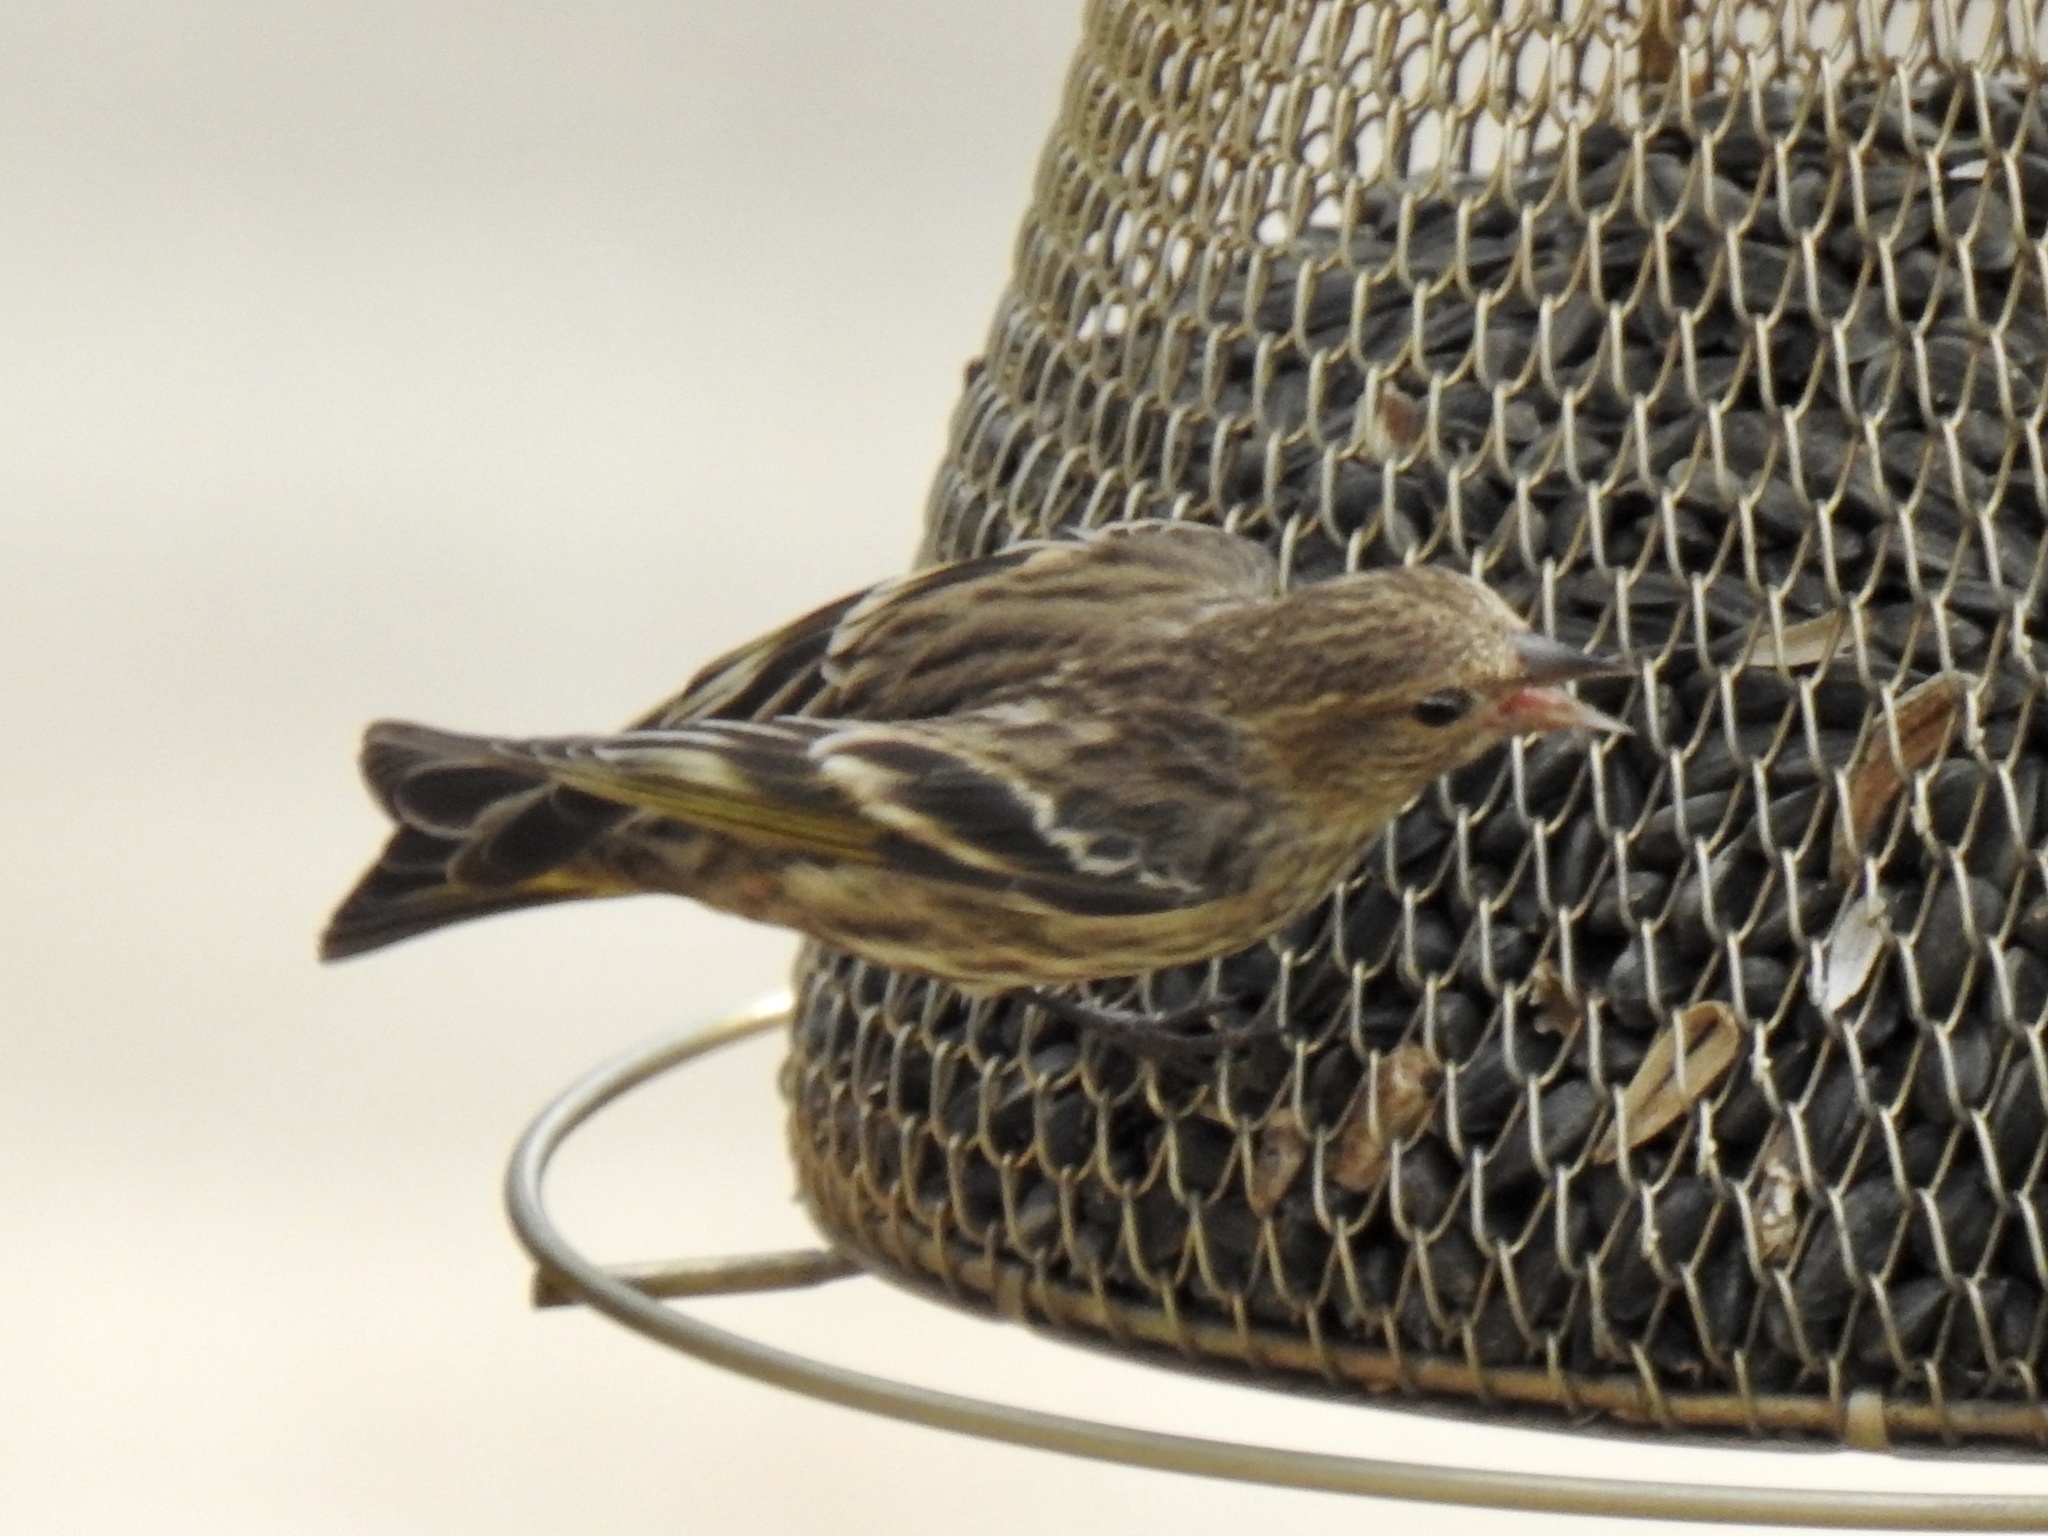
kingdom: Animalia
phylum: Chordata
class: Aves
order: Passeriformes
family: Fringillidae
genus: Spinus
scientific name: Spinus pinus
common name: Pine siskin
